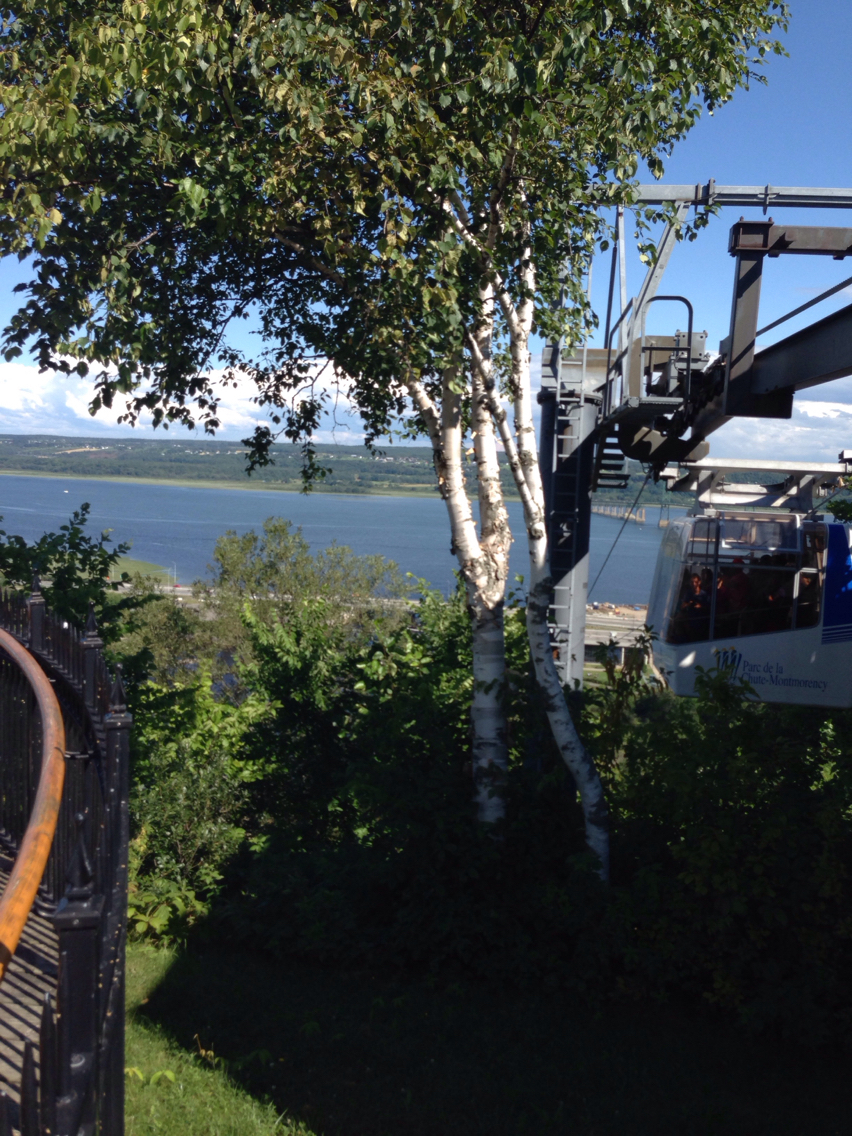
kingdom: Plantae
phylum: Tracheophyta
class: Magnoliopsida
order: Fagales
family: Betulaceae
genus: Betula
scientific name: Betula papyrifera
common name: Paper birch
